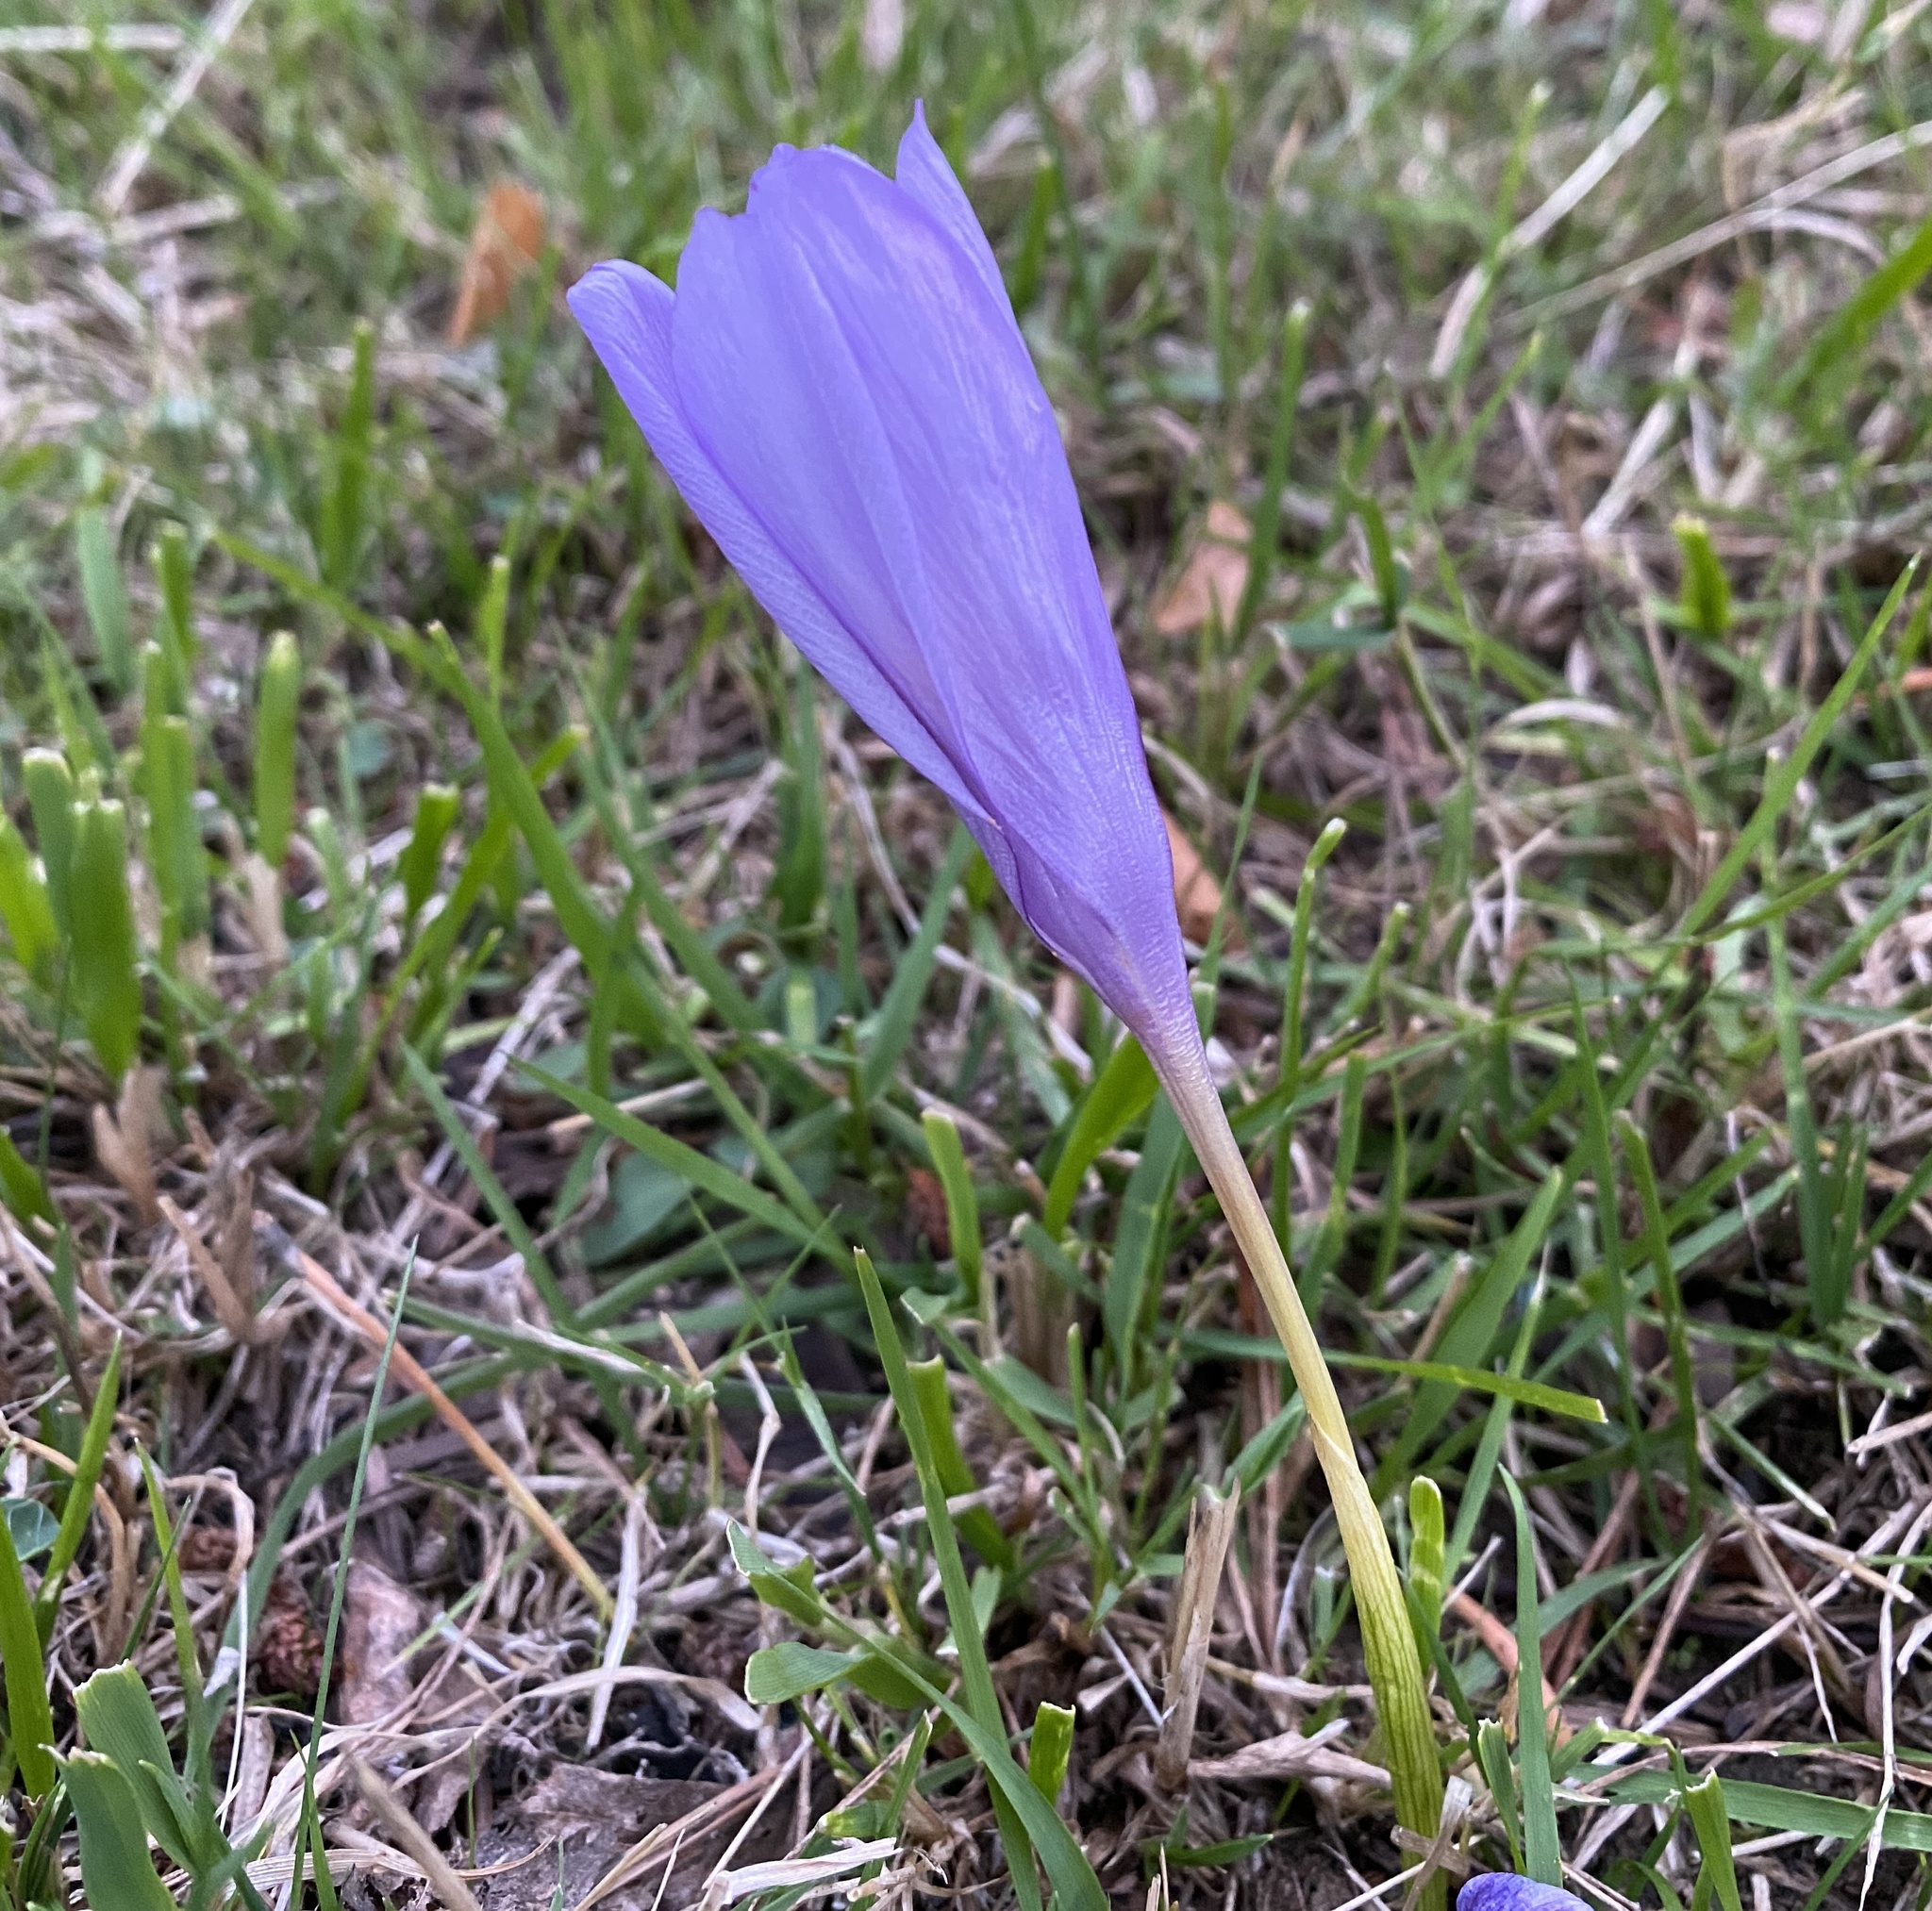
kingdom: Plantae
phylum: Tracheophyta
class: Liliopsida
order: Asparagales
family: Iridaceae
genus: Crocus
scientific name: Crocus nudiflorus
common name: Autumn crocus
